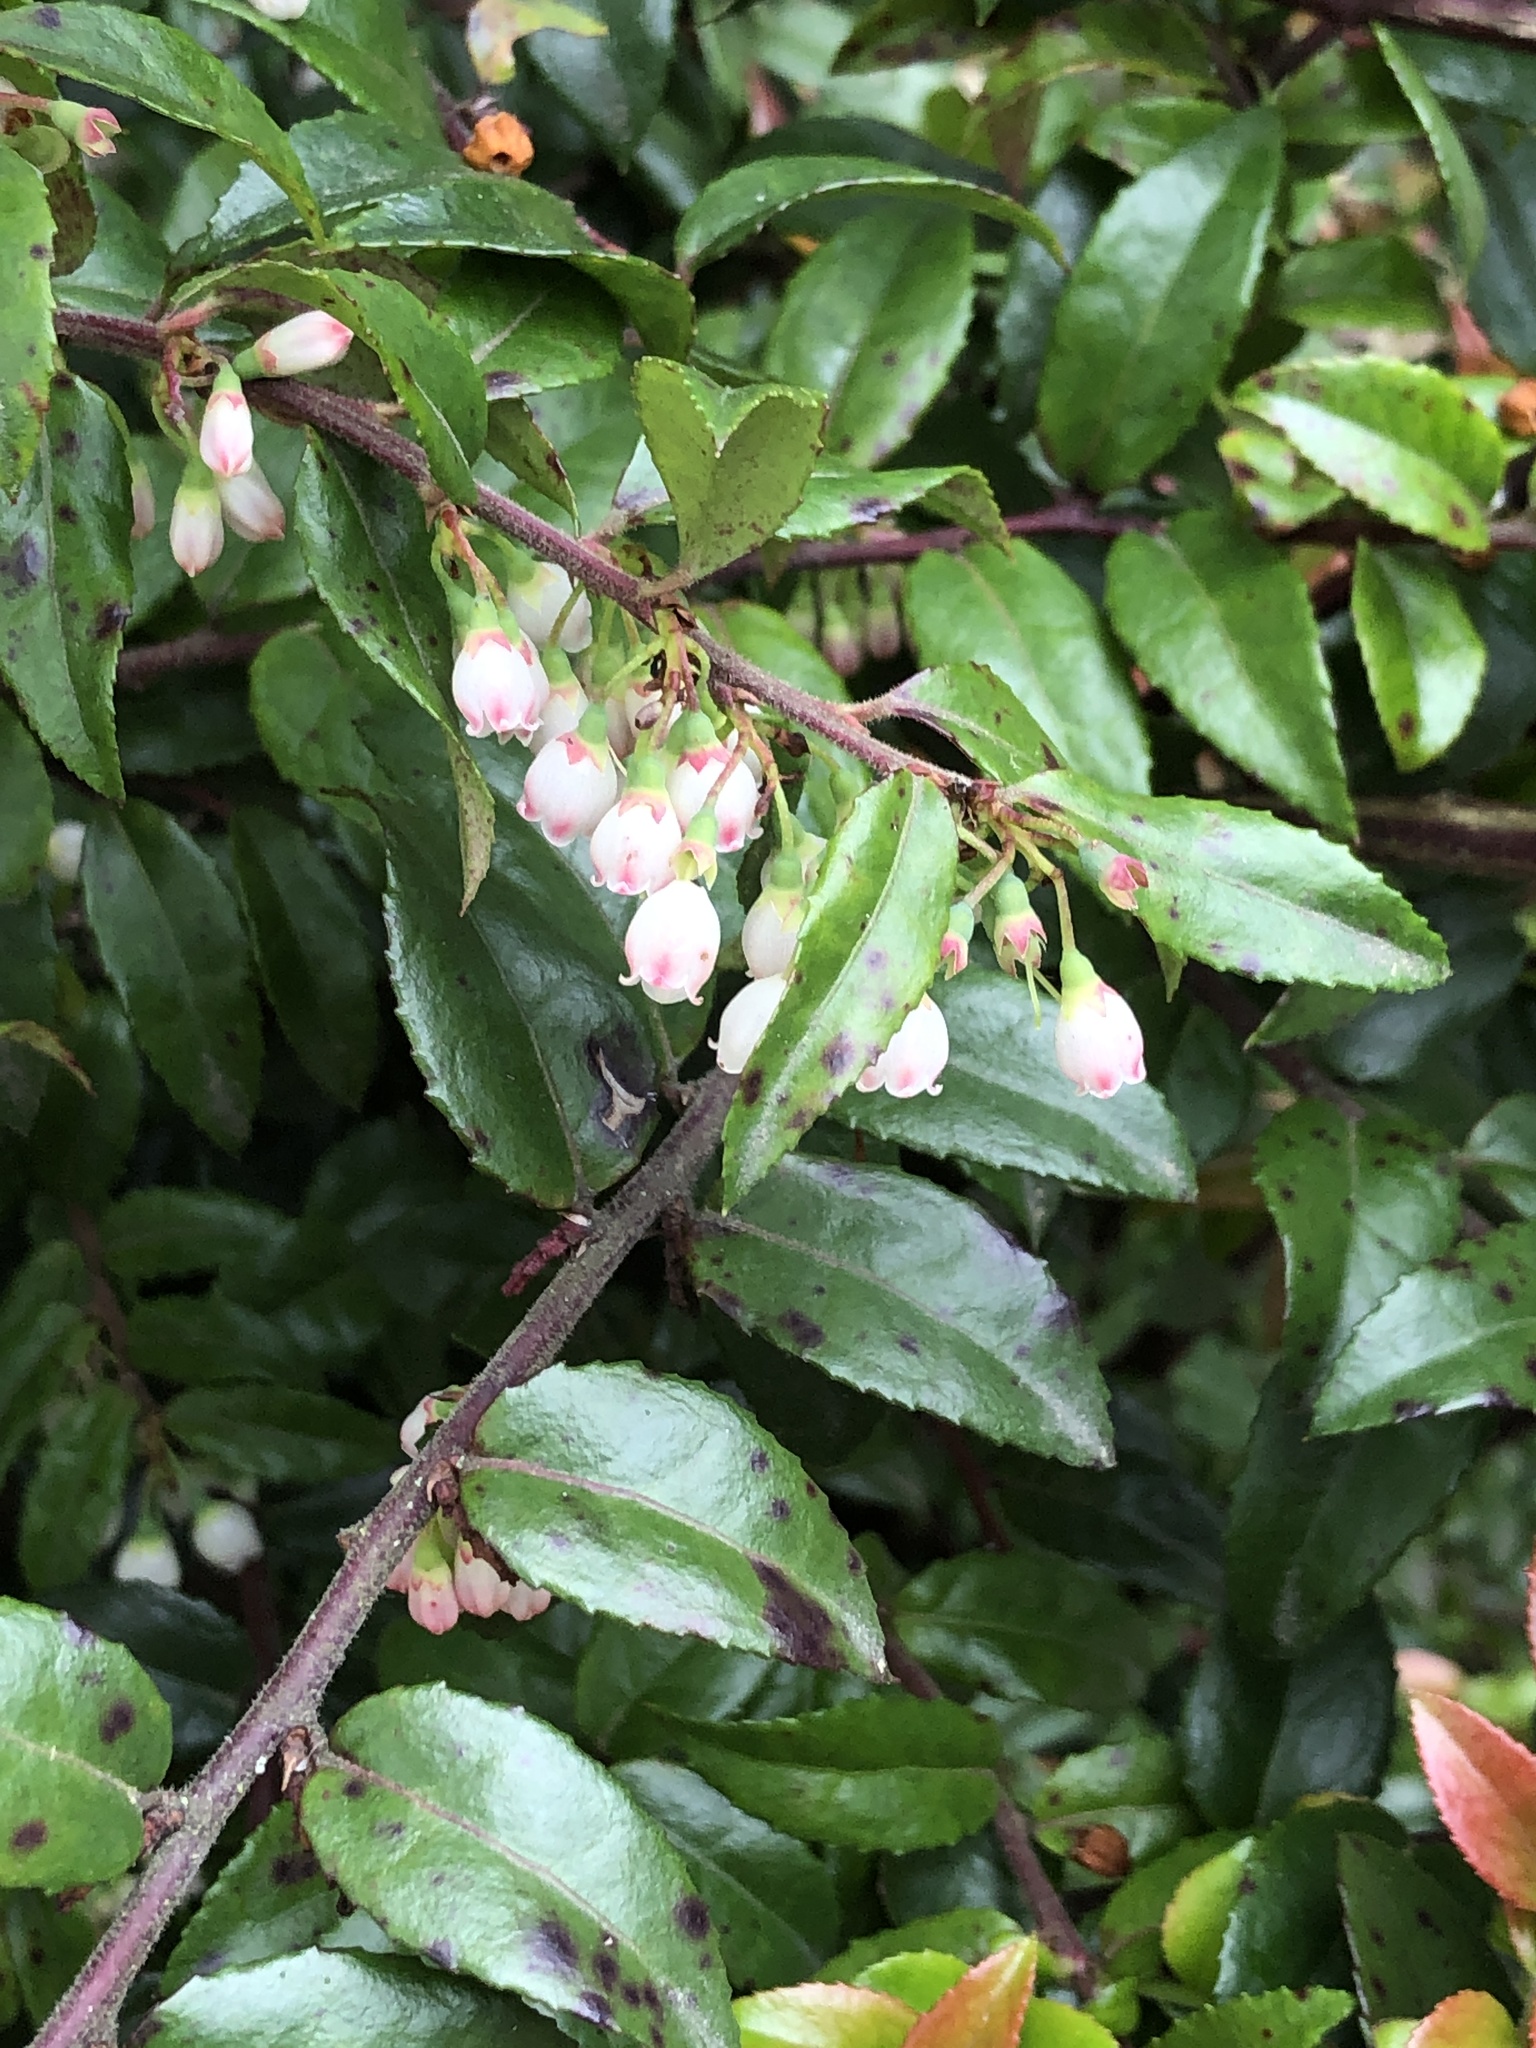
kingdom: Plantae
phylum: Tracheophyta
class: Magnoliopsida
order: Ericales
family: Ericaceae
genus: Vaccinium
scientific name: Vaccinium ovatum
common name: California-huckleberry
